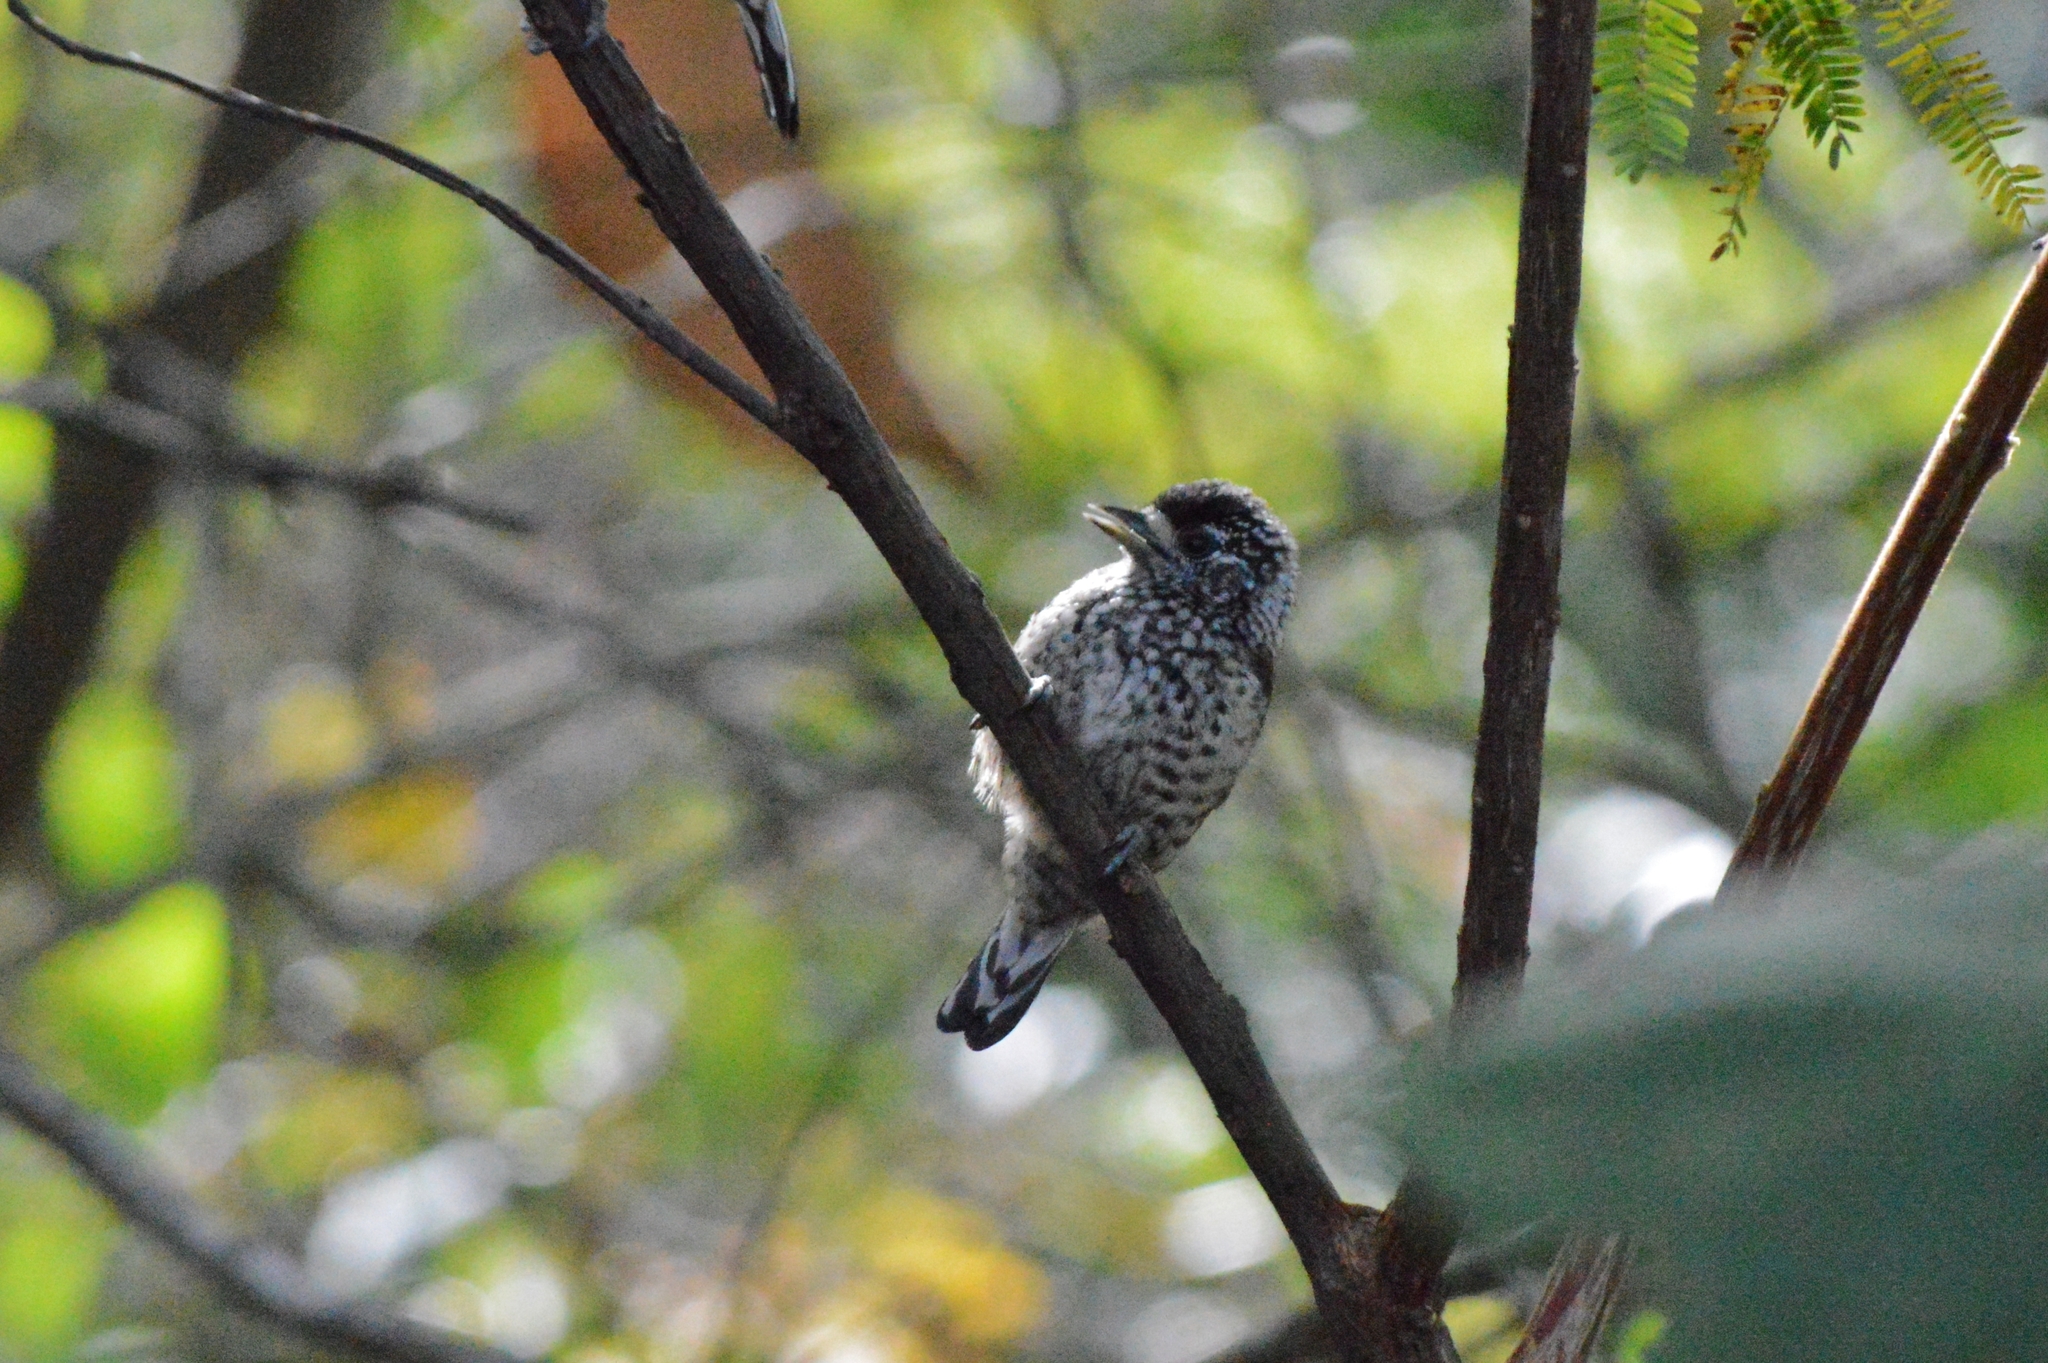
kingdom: Animalia
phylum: Chordata
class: Aves
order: Piciformes
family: Picidae
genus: Picumnus
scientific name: Picumnus albosquamatus
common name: White-wedged piculet
